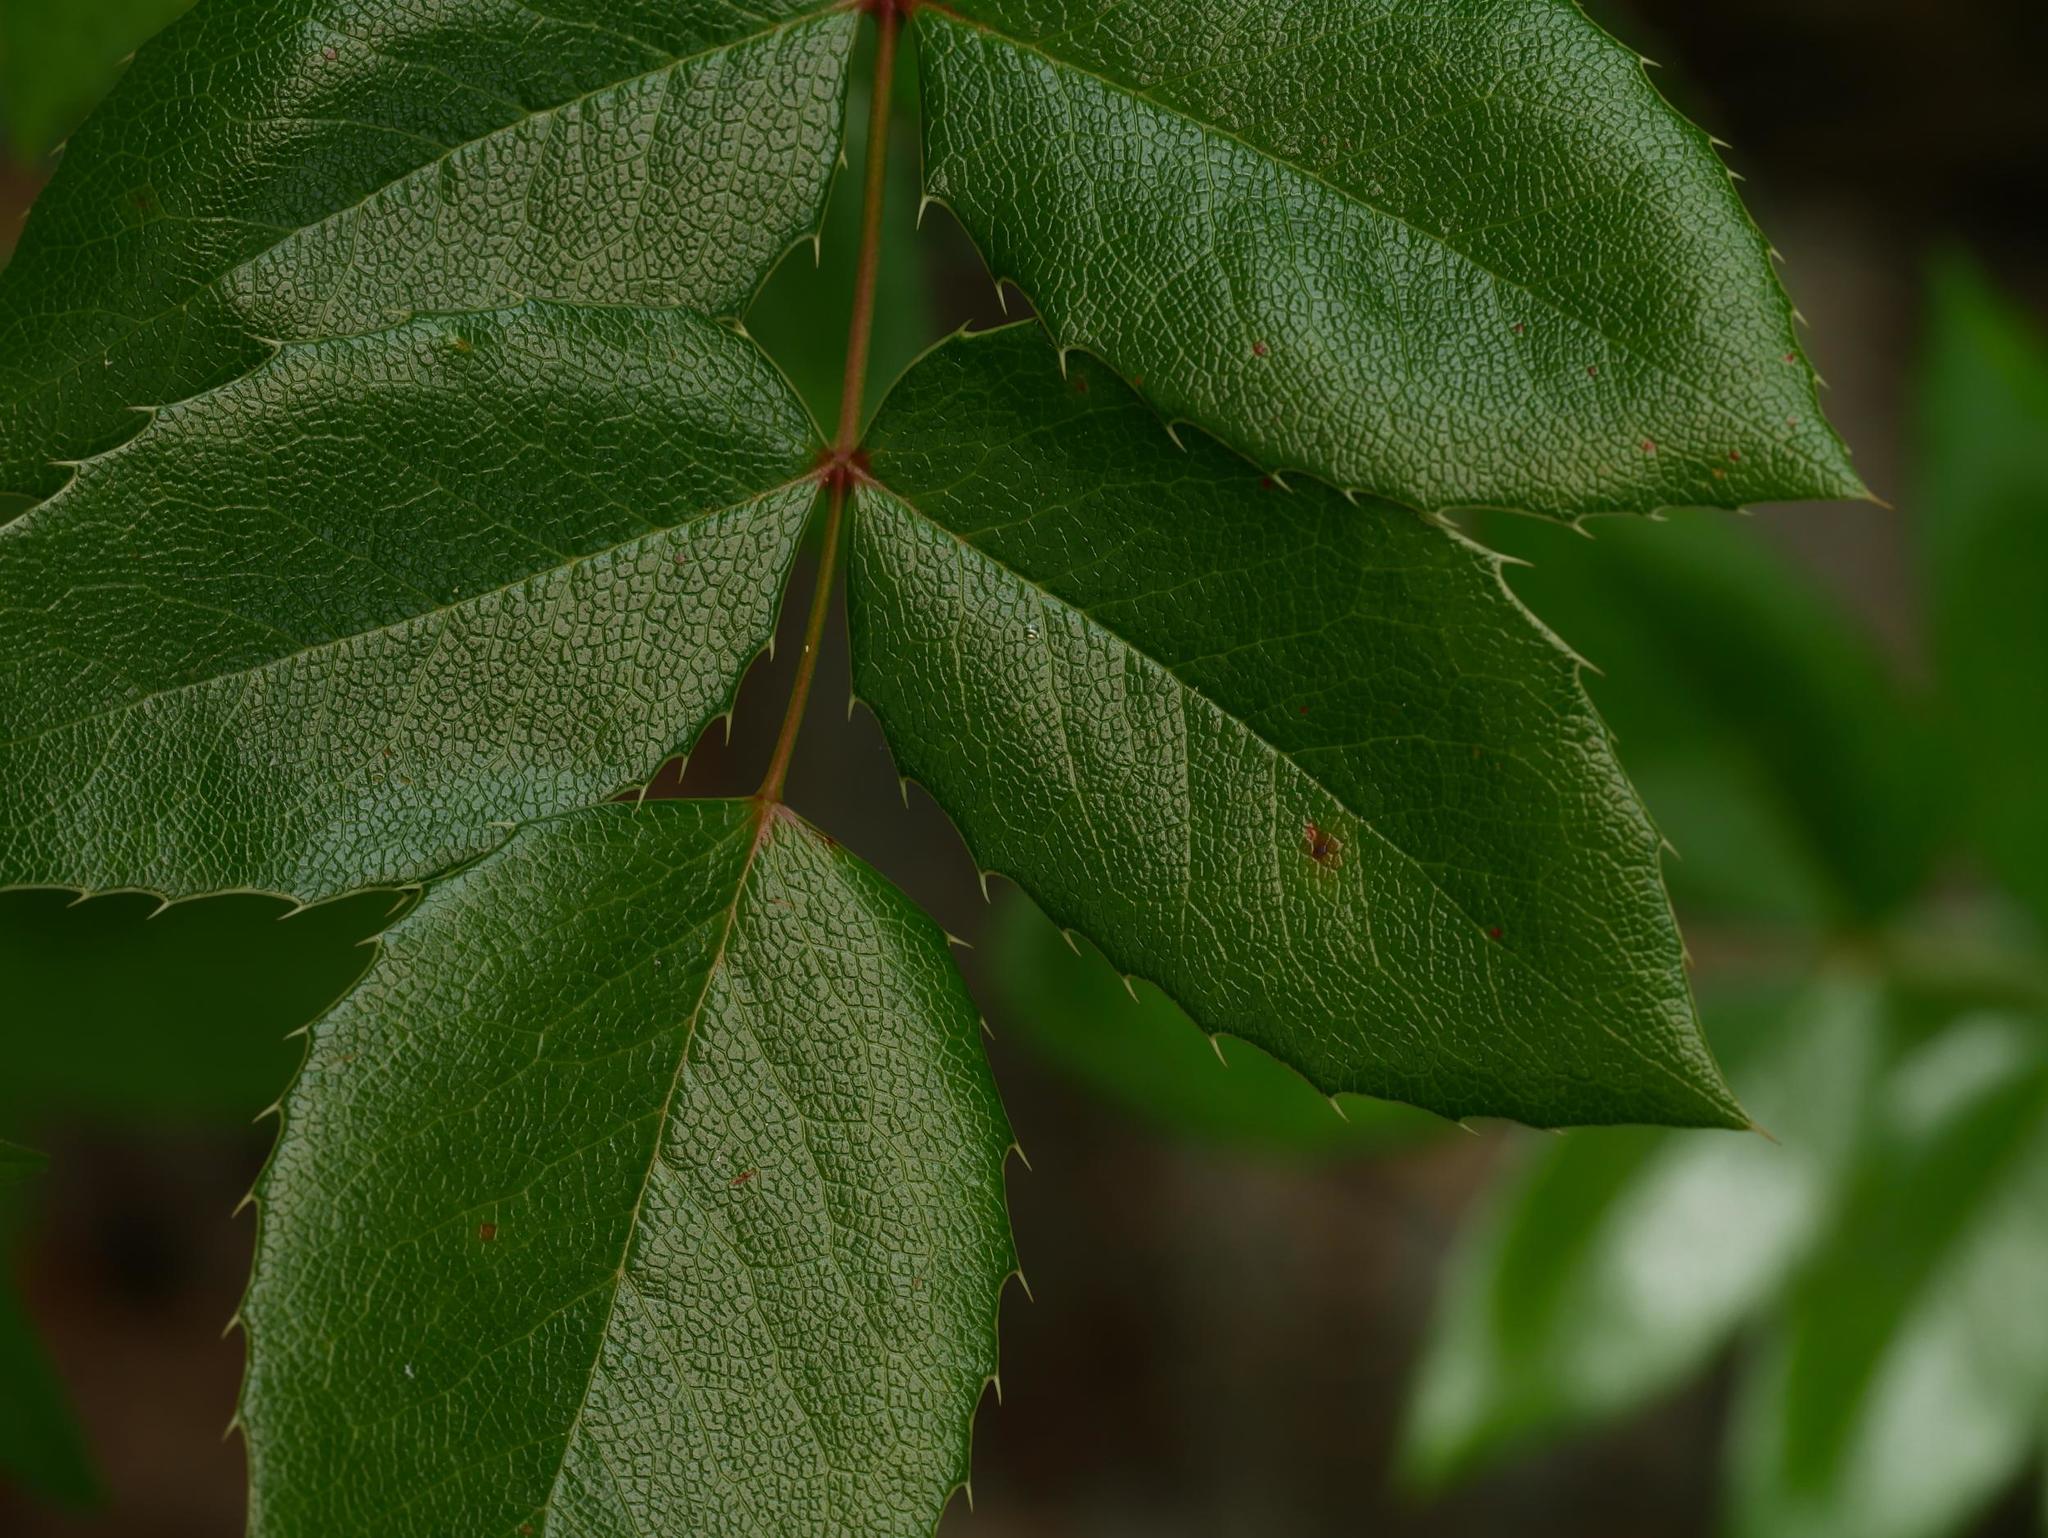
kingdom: Plantae
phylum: Tracheophyta
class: Magnoliopsida
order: Ranunculales
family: Berberidaceae
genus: Mahonia
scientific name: Mahonia aquifolium
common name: Oregon-grape
